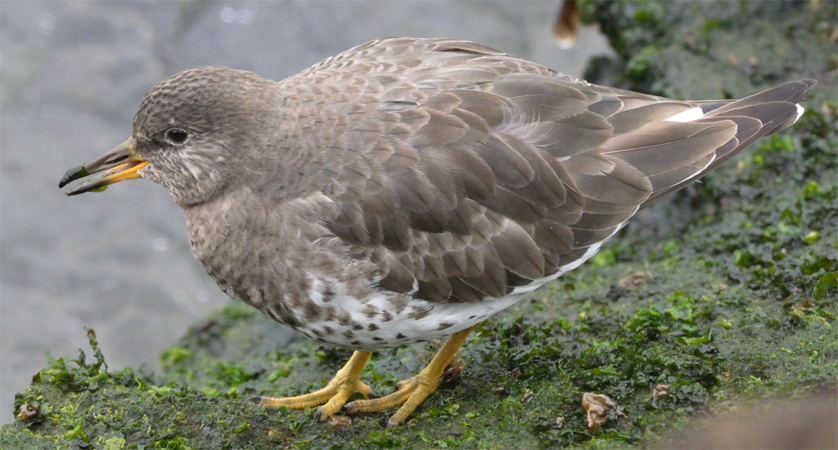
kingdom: Animalia
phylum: Chordata
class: Aves
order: Charadriiformes
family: Scolopacidae
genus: Calidris
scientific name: Calidris virgata
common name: Surfbird
